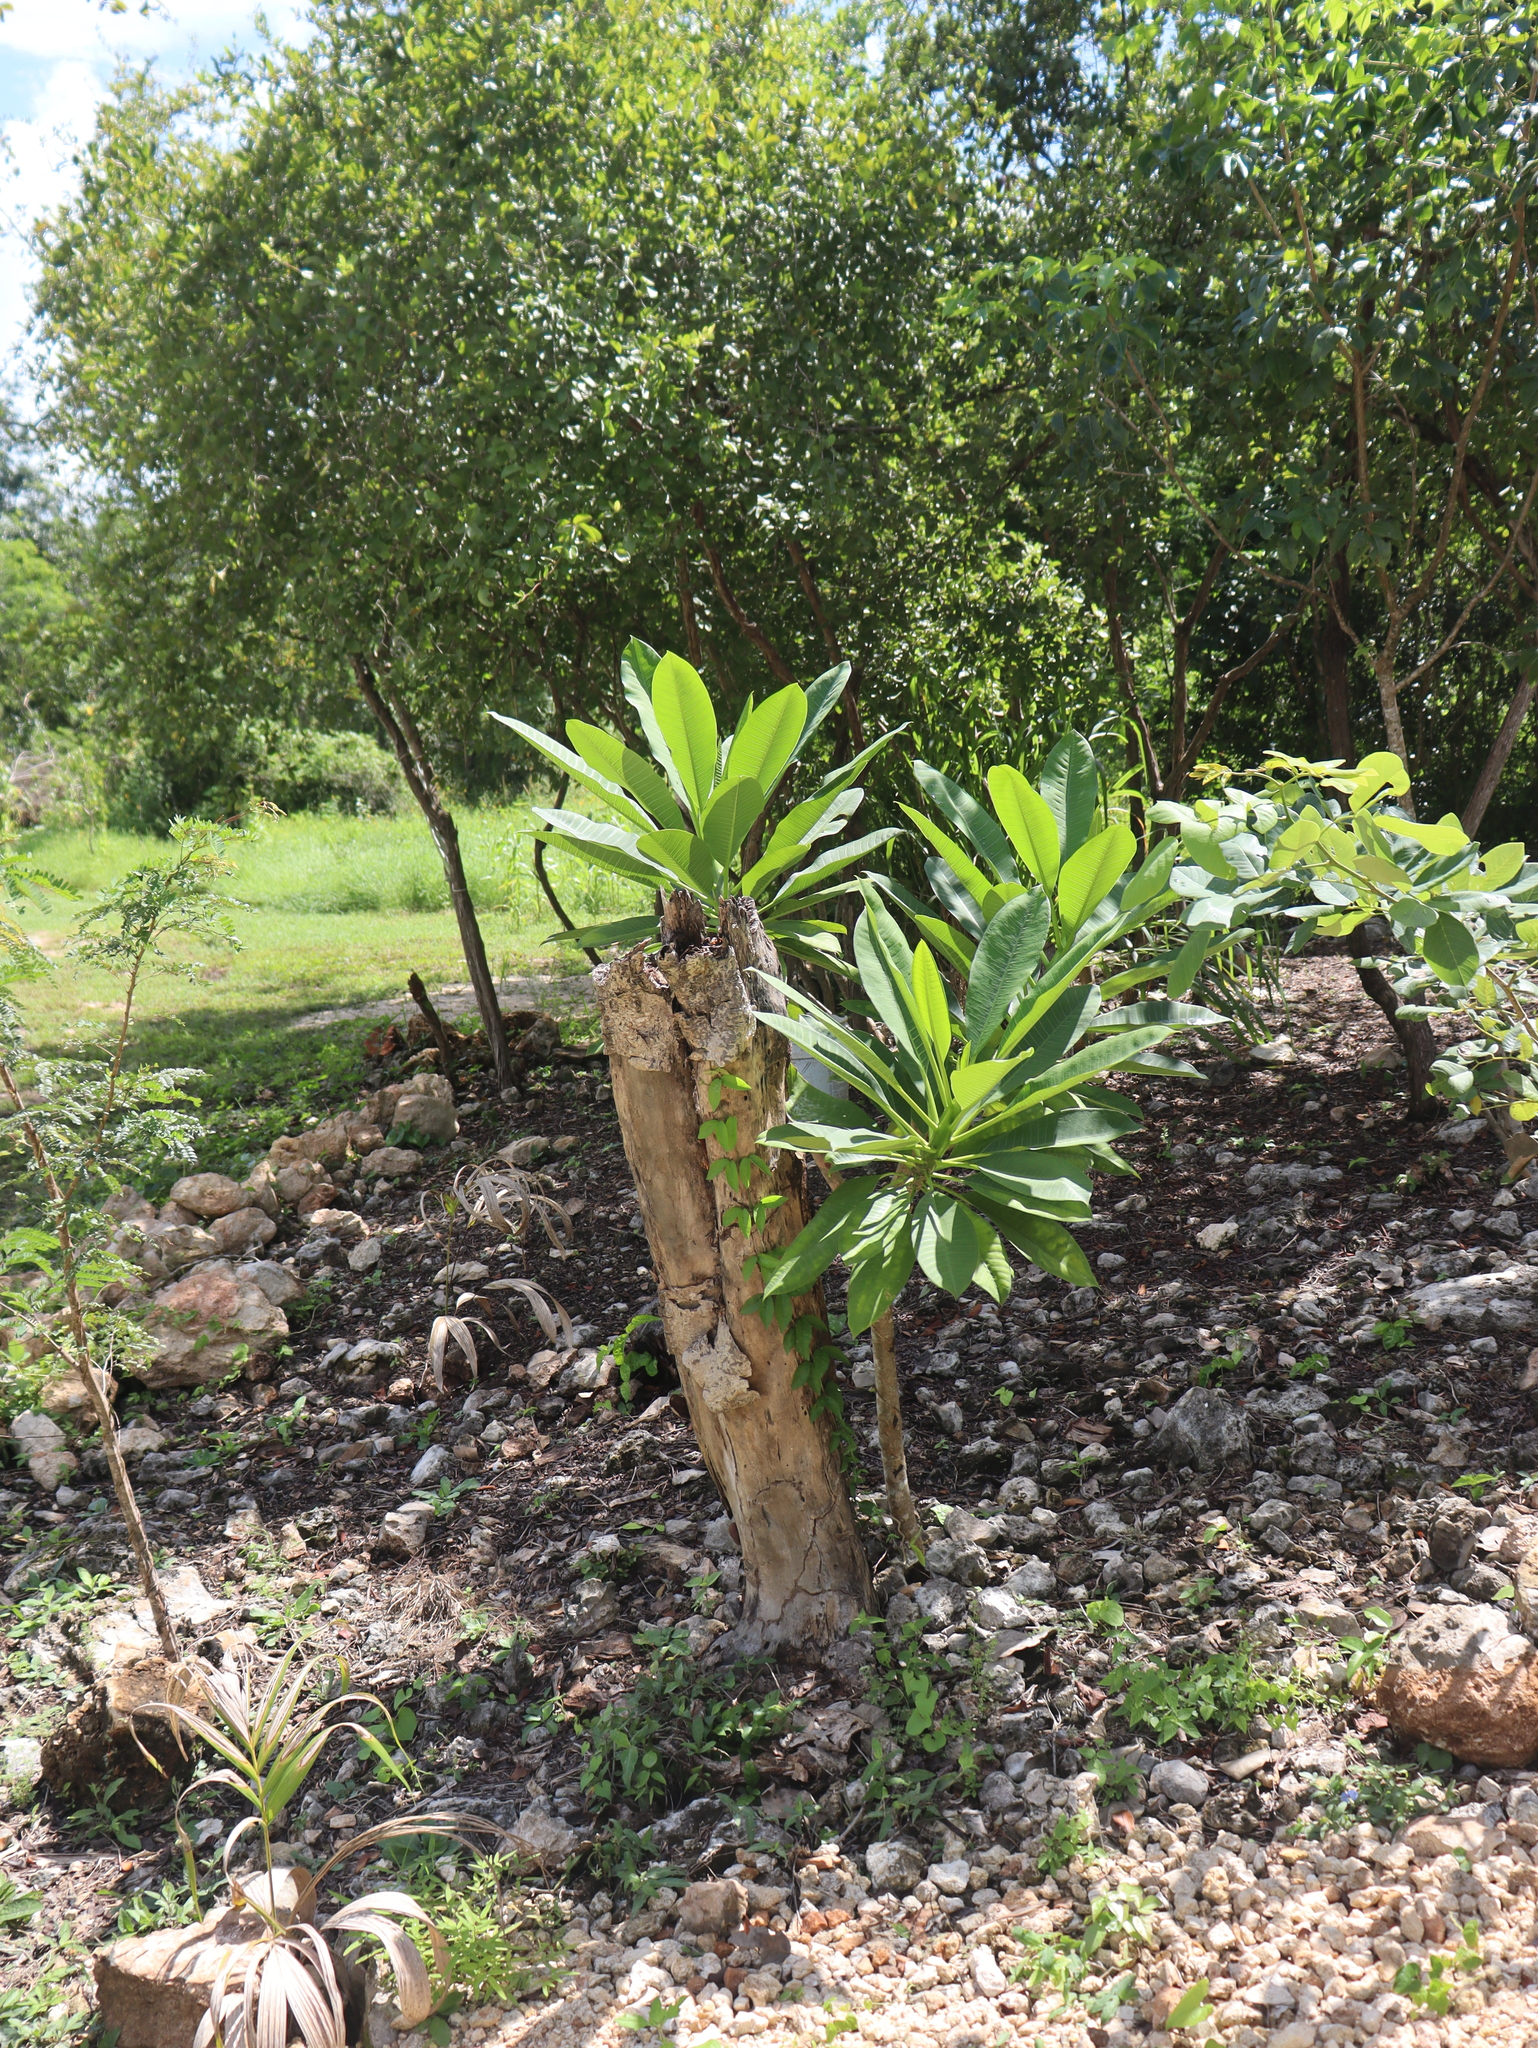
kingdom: Plantae
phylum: Tracheophyta
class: Magnoliopsida
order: Gentianales
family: Apocynaceae
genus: Plumeria
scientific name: Plumeria rubra
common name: Pagoda-tree
